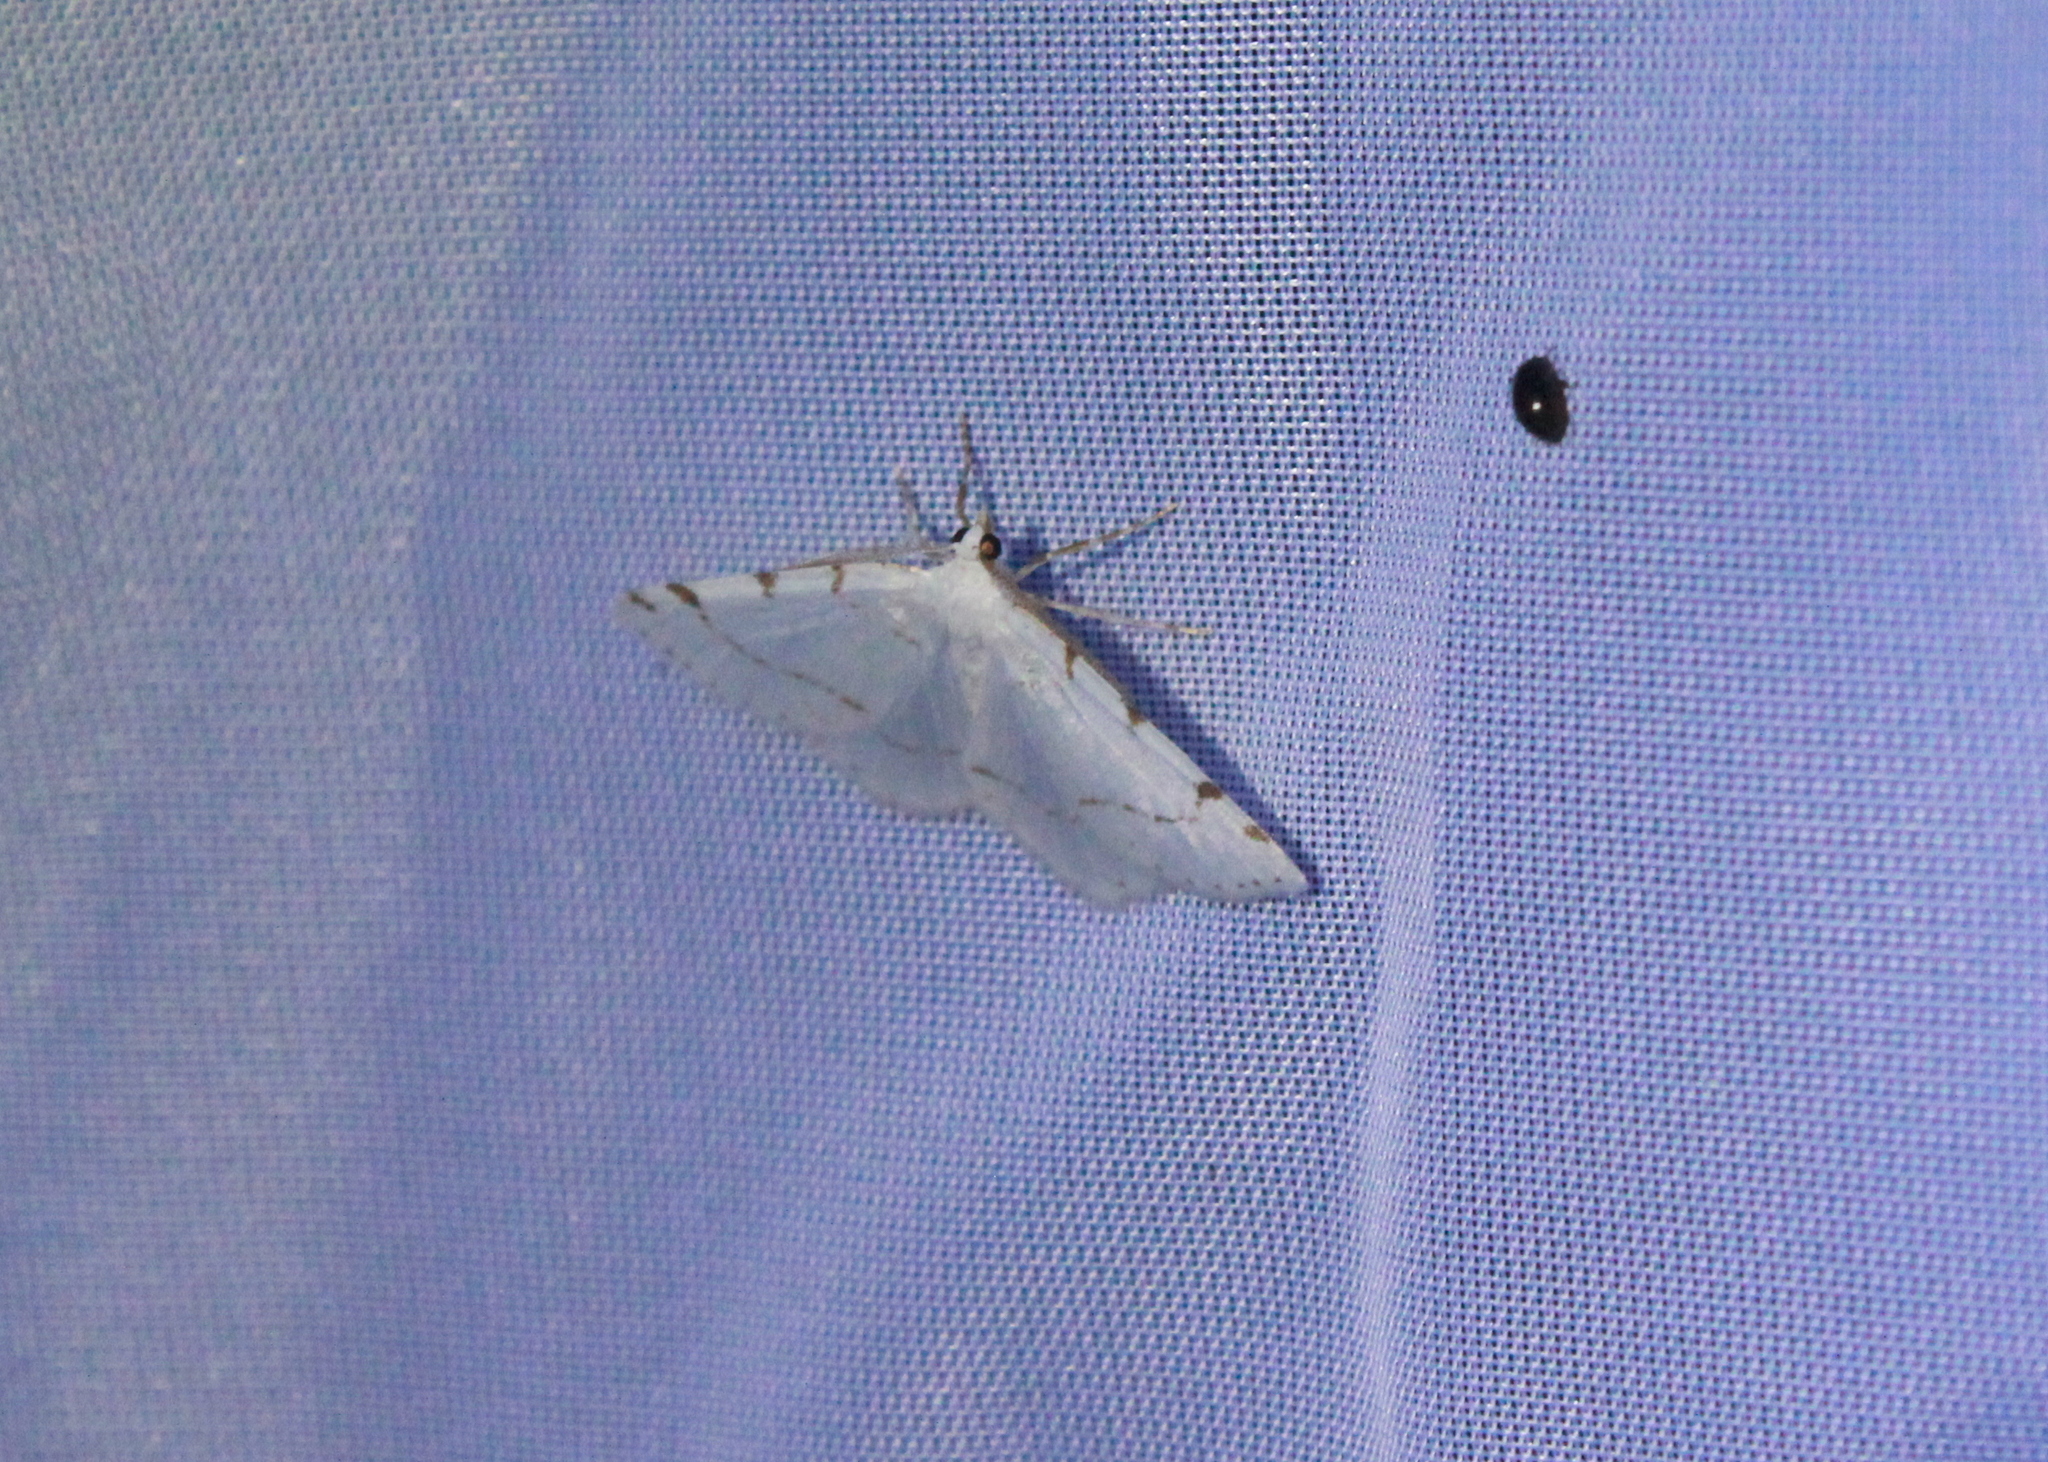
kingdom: Animalia
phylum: Arthropoda
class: Insecta
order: Lepidoptera
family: Geometridae
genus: Macaria
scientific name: Macaria pustularia
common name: Lesser maple spanworm moth
